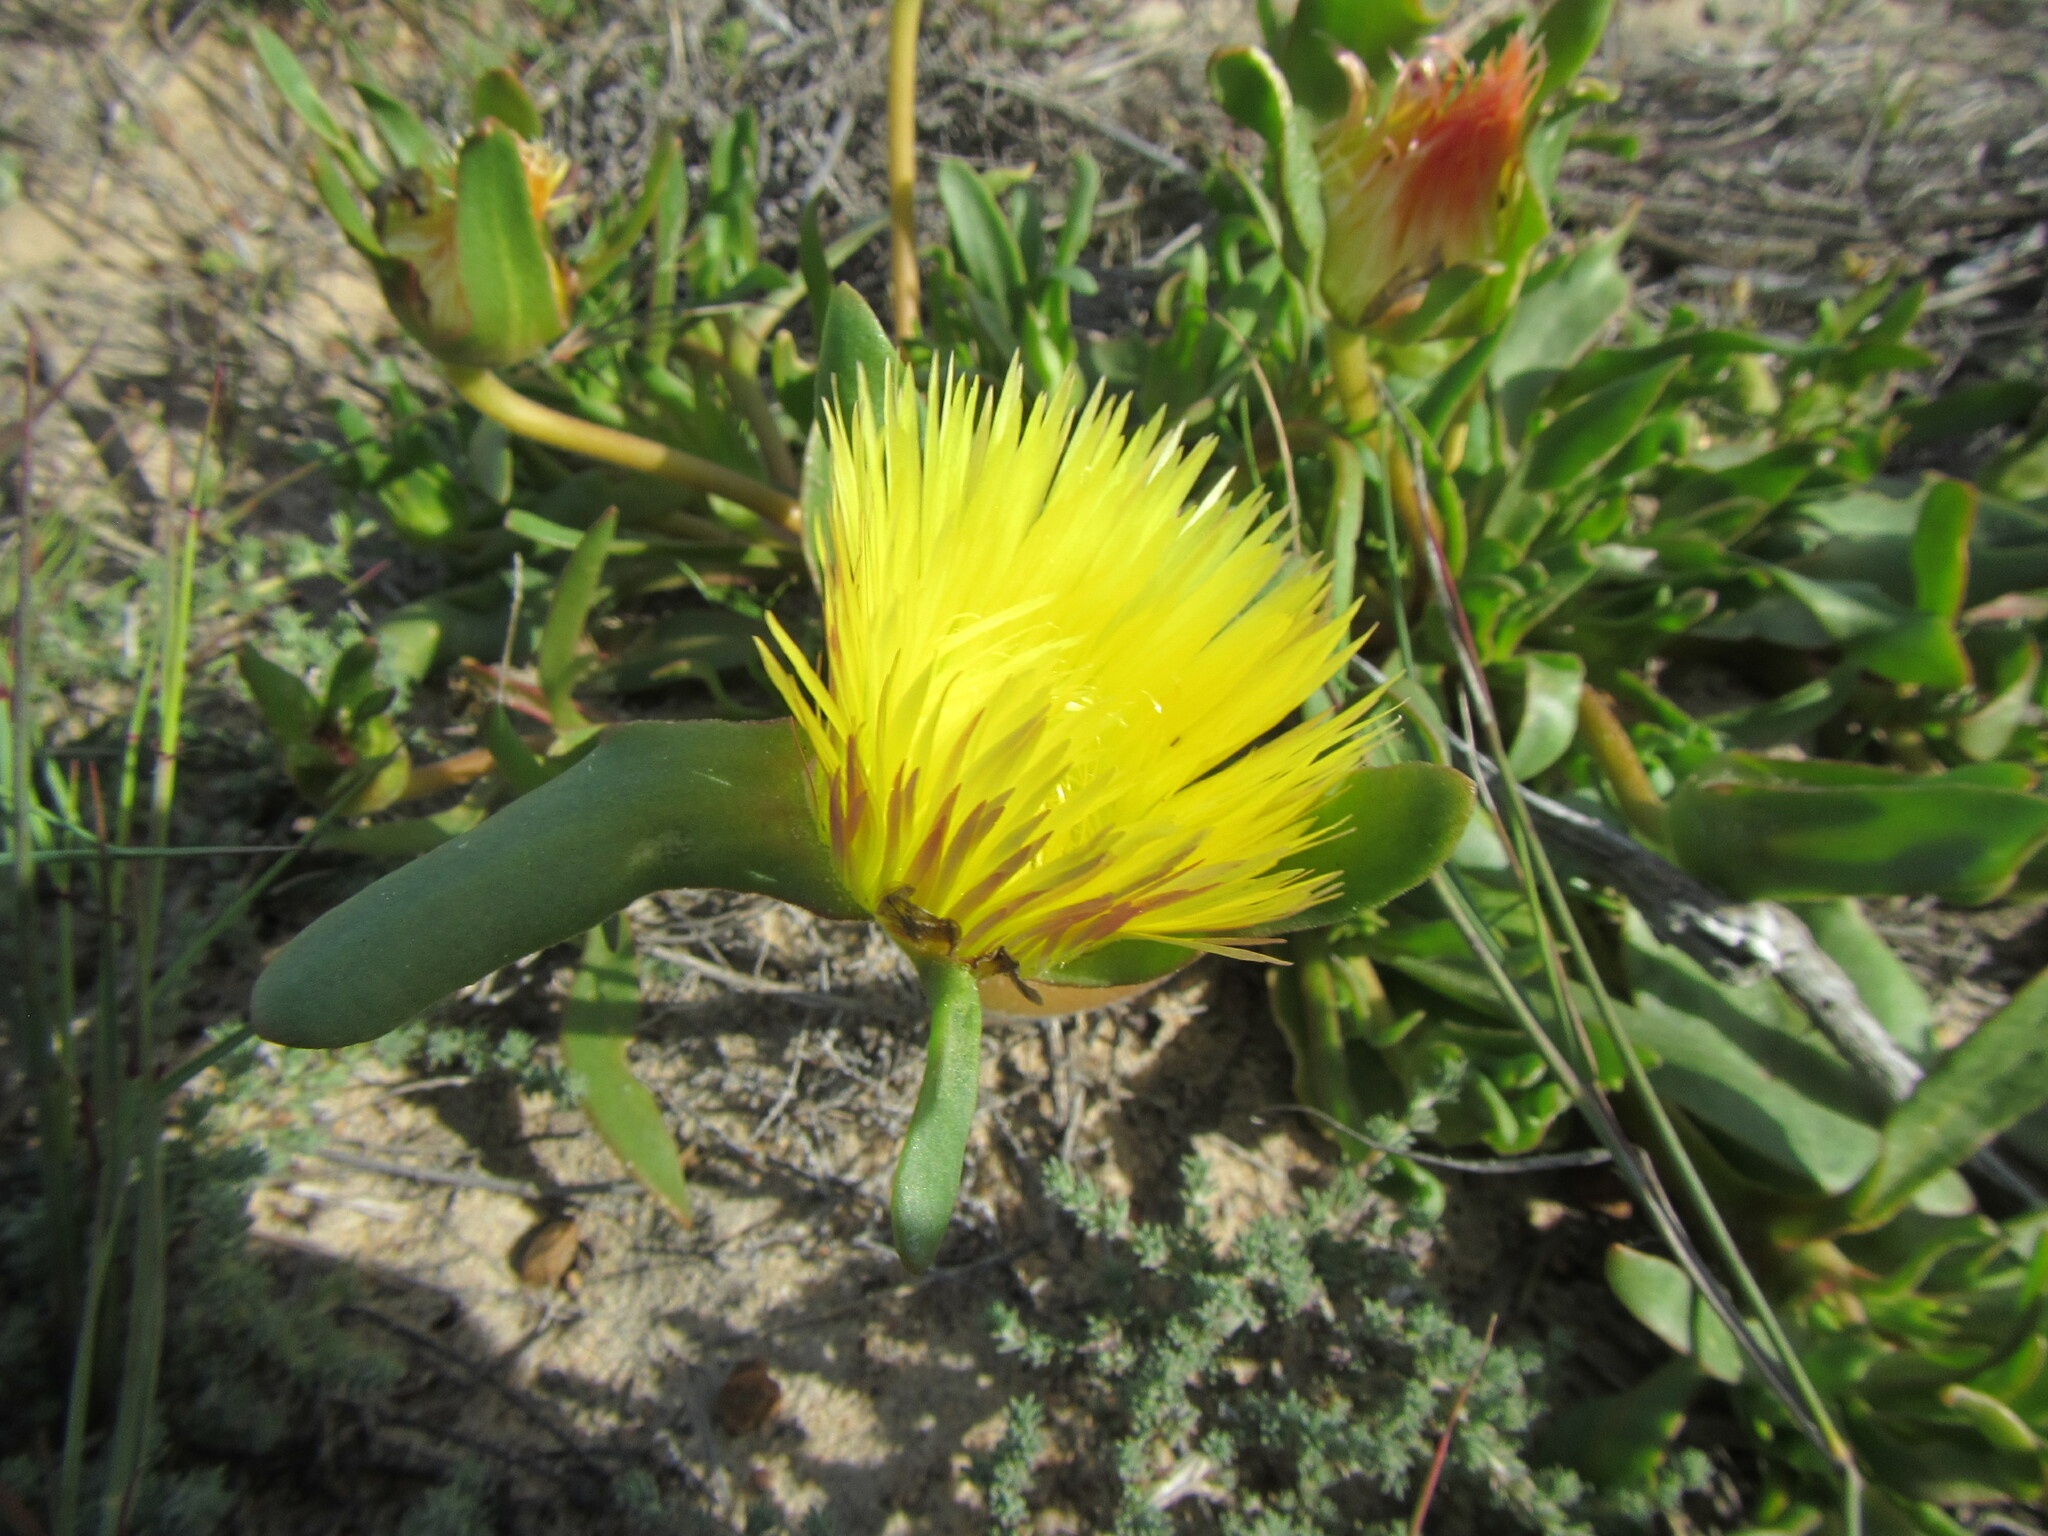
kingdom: Plantae
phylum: Tracheophyta
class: Magnoliopsida
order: Caryophyllales
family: Aizoaceae
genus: Carpanthea
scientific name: Carpanthea pomeridiana
